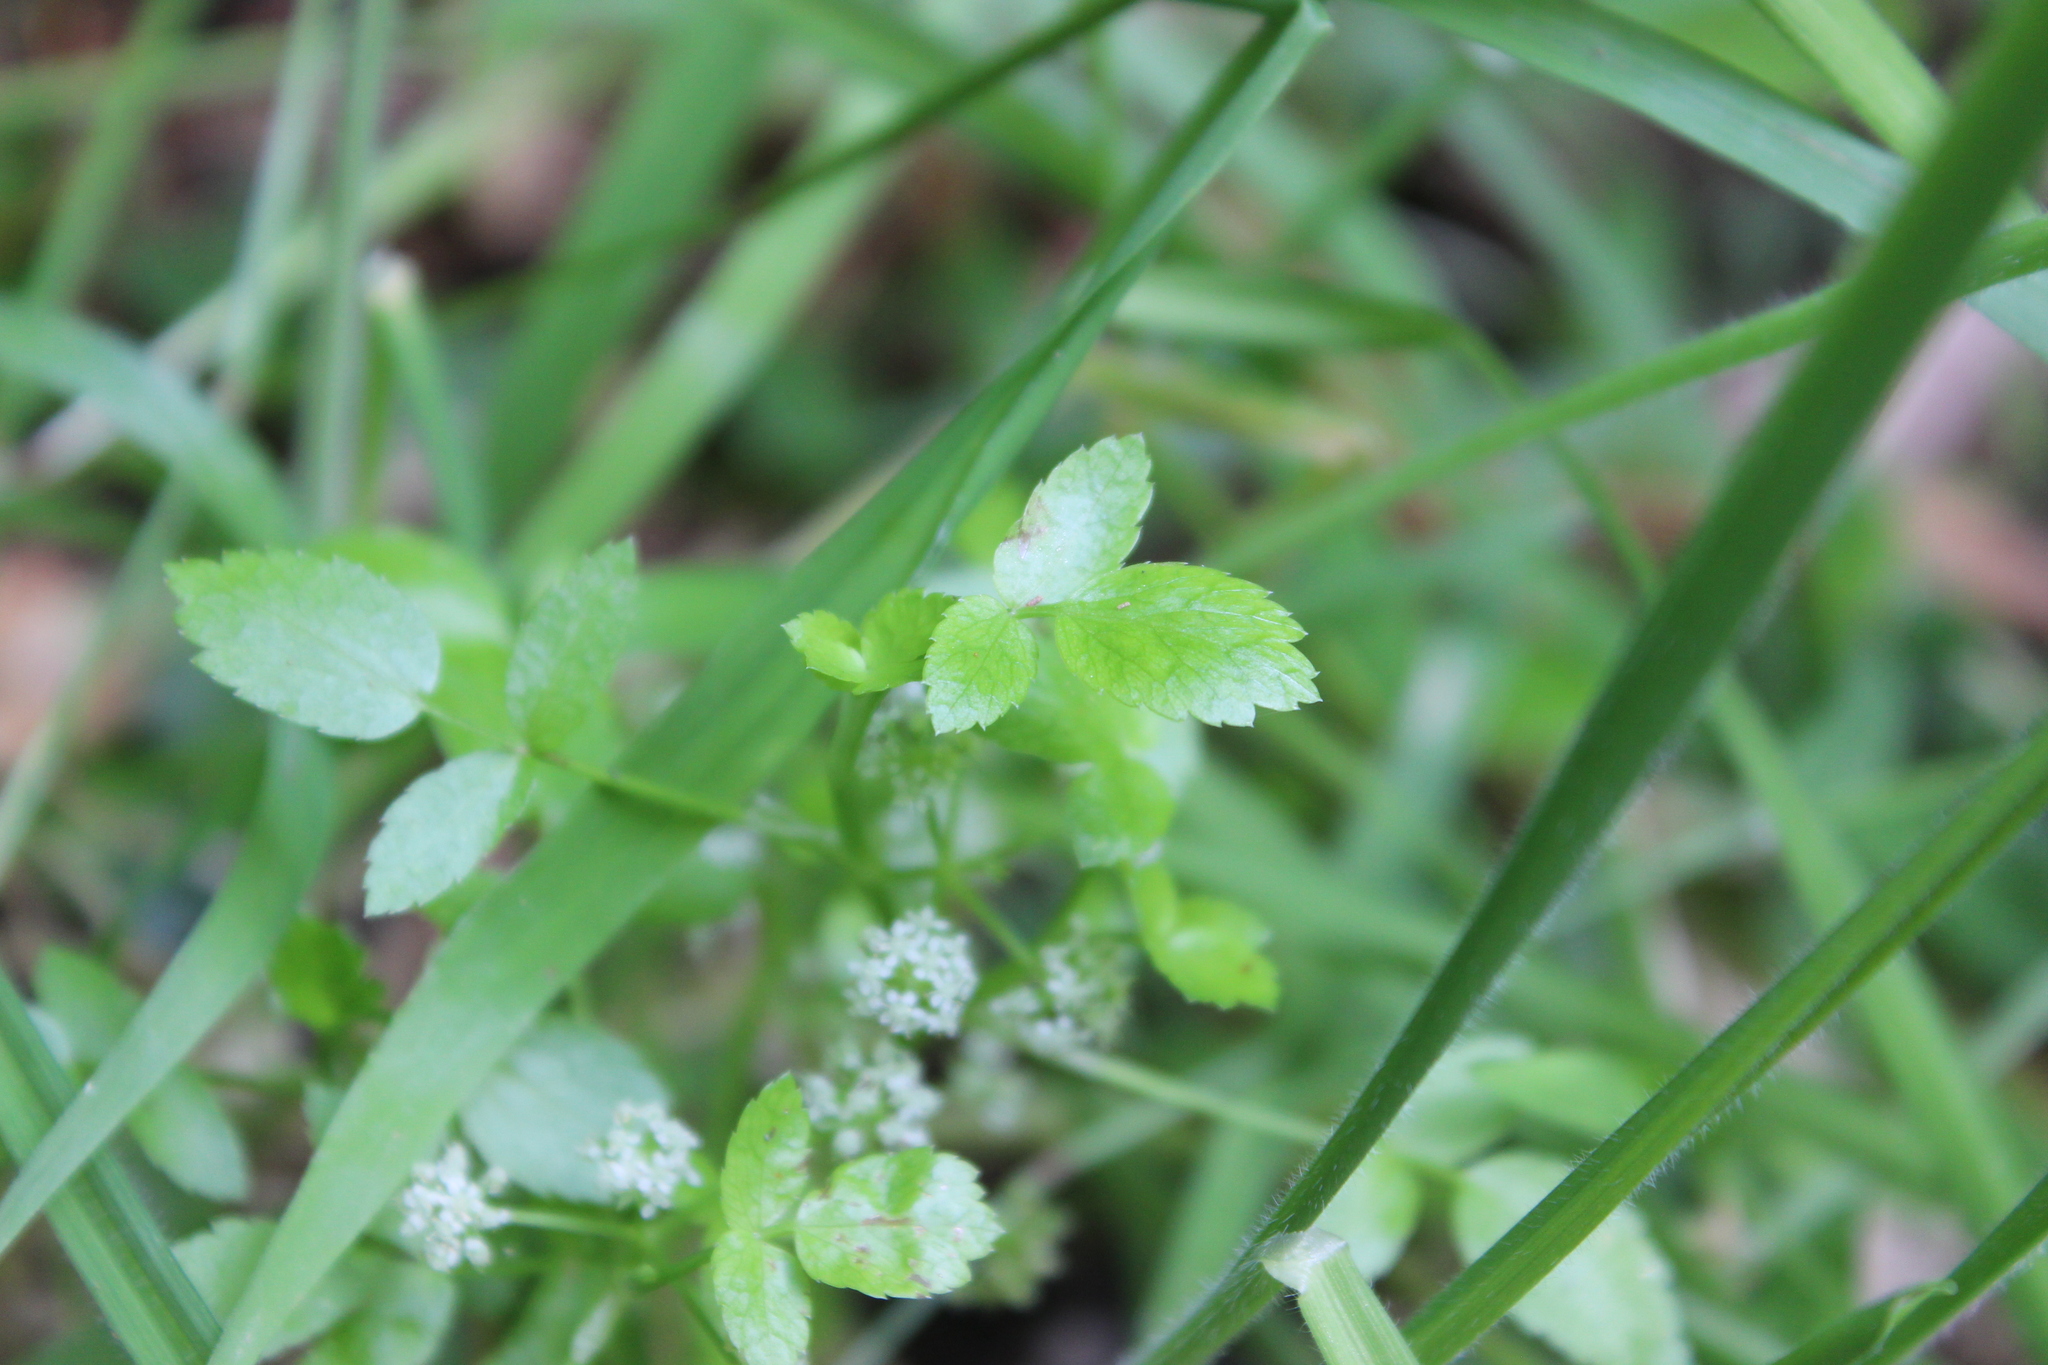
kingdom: Plantae
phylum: Tracheophyta
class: Magnoliopsida
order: Apiales
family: Apiaceae
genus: Helosciadium
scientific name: Helosciadium nodiflorum
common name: Fool's-watercress
